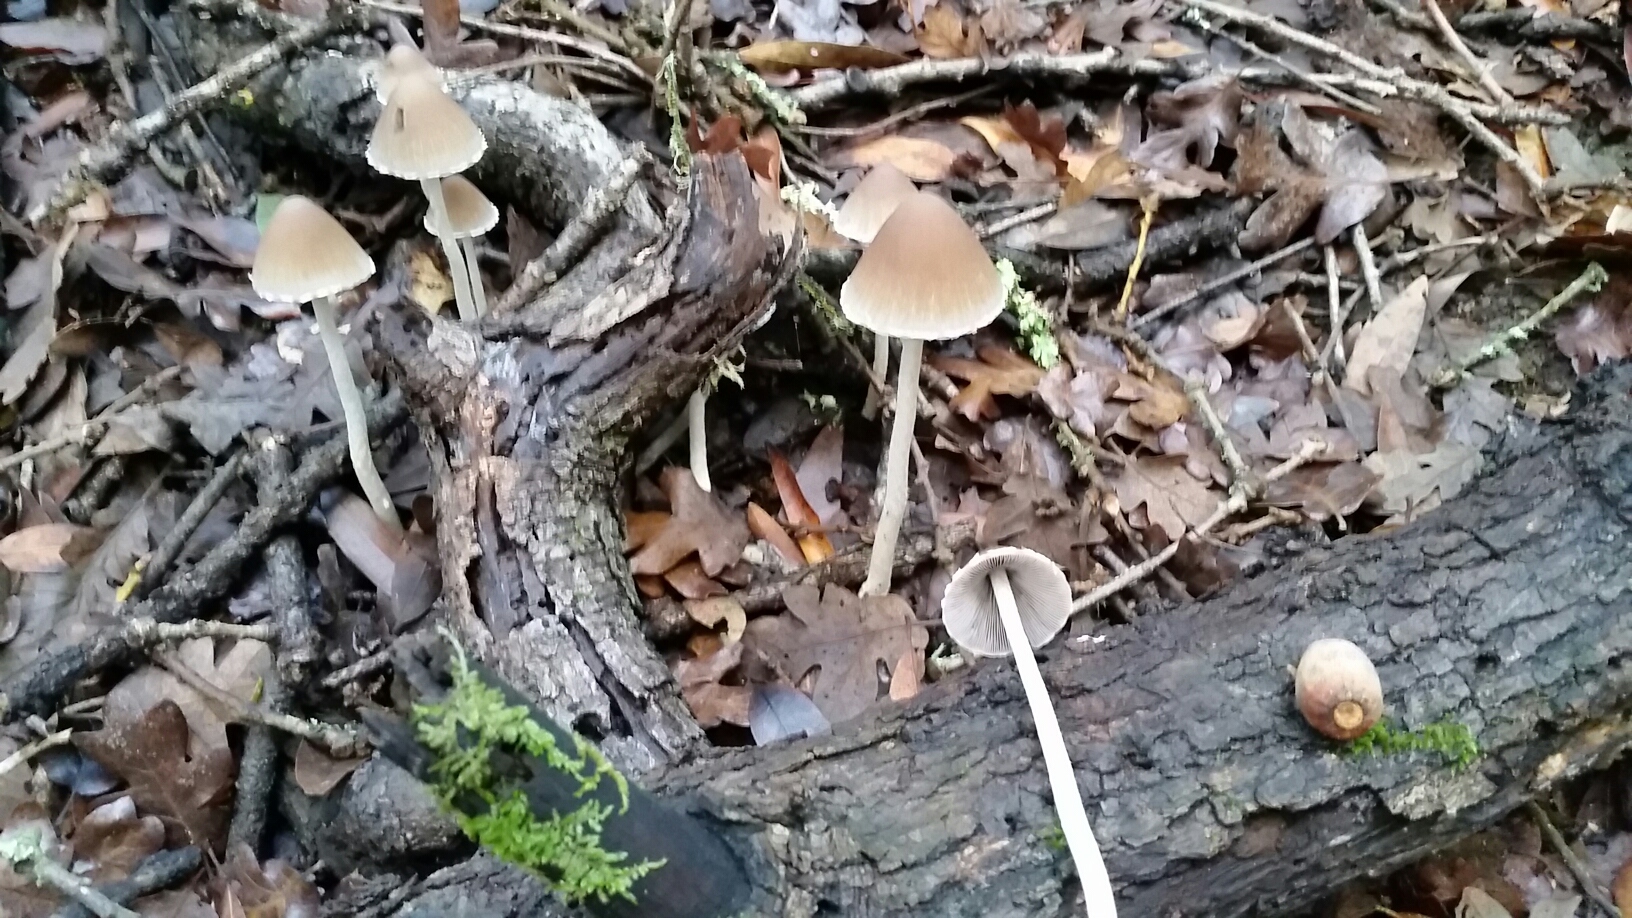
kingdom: Fungi
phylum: Basidiomycota
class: Agaricomycetes
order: Agaricales
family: Psathyrellaceae
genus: Psathyrella
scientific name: Psathyrella longipes
